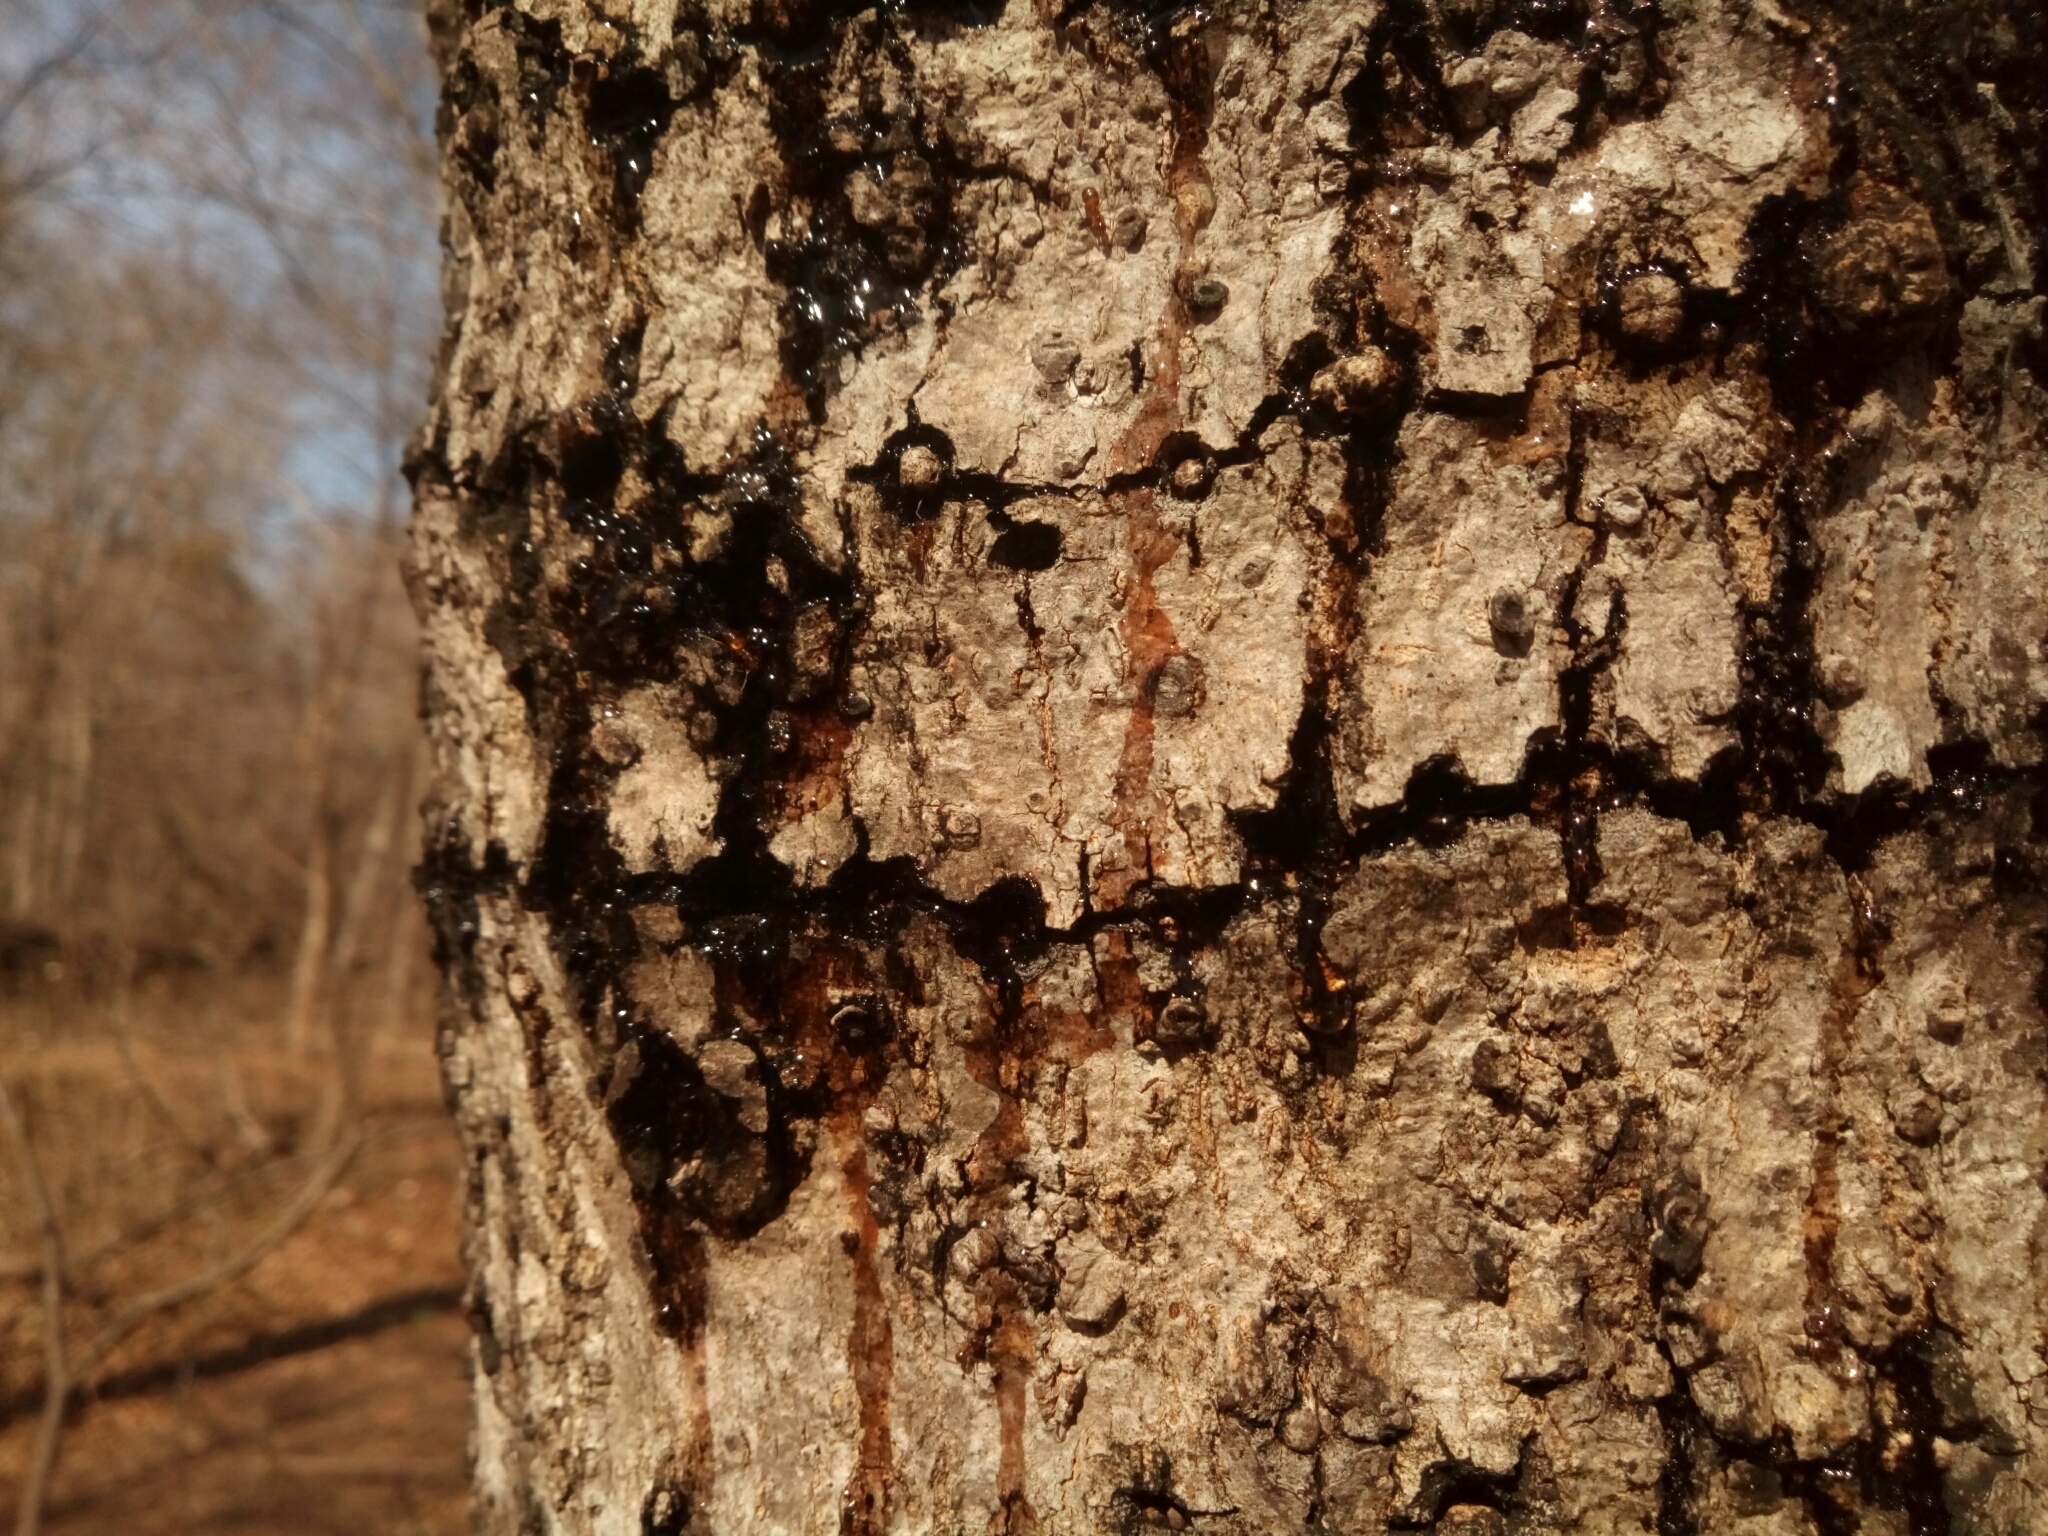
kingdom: Animalia
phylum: Chordata
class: Aves
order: Piciformes
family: Picidae
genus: Sphyrapicus
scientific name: Sphyrapicus varius
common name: Yellow-bellied sapsucker
